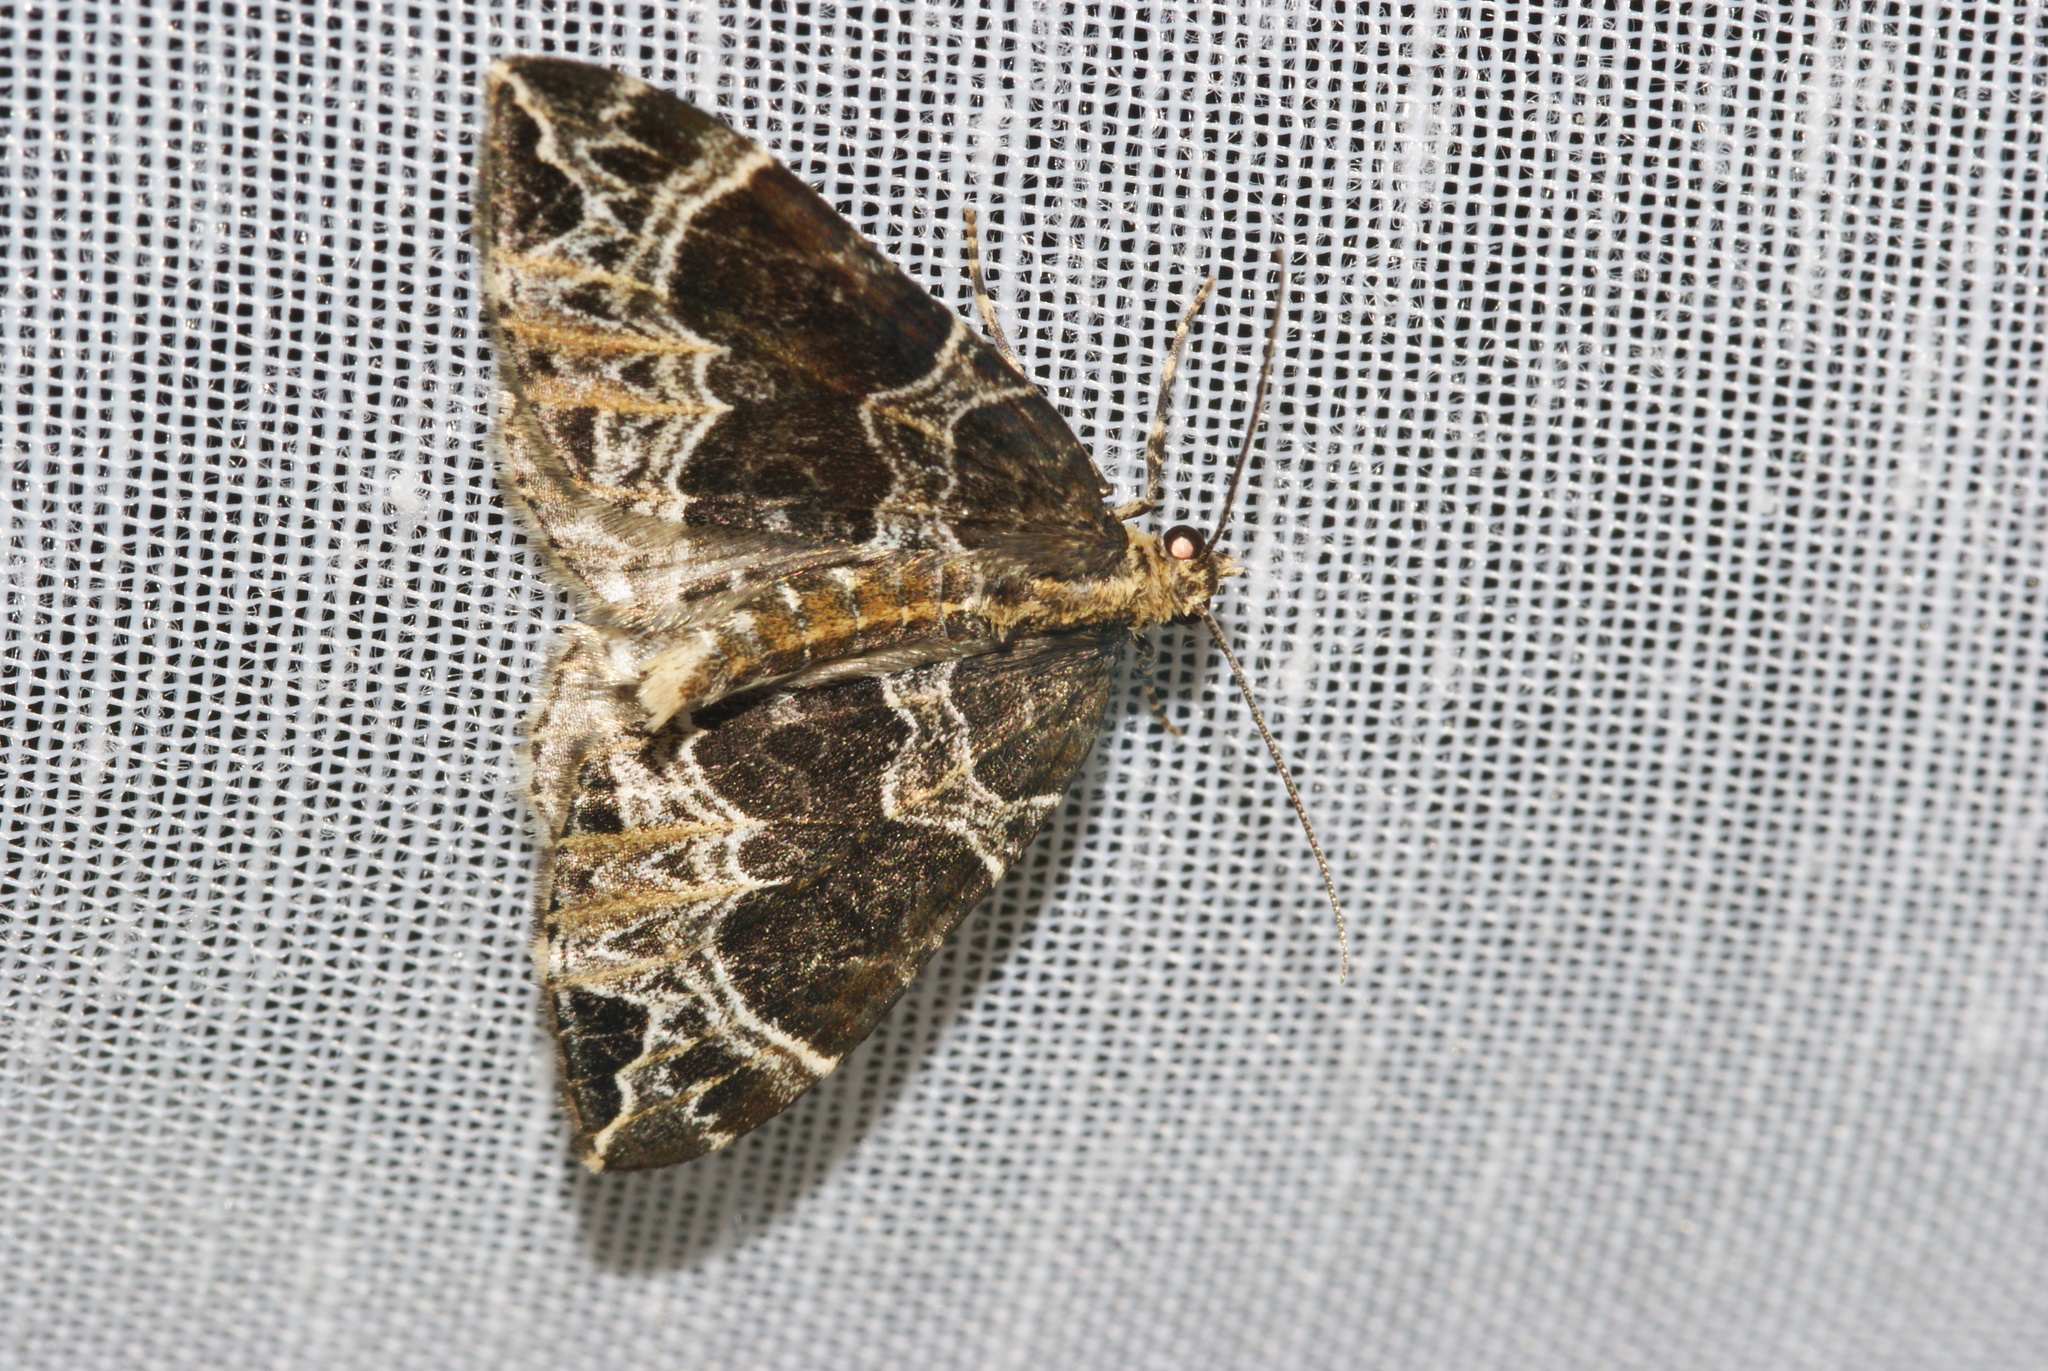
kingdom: Animalia
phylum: Arthropoda
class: Insecta
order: Lepidoptera
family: Geometridae
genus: Ecliptopera
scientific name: Ecliptopera silaceata
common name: Small phoenix
